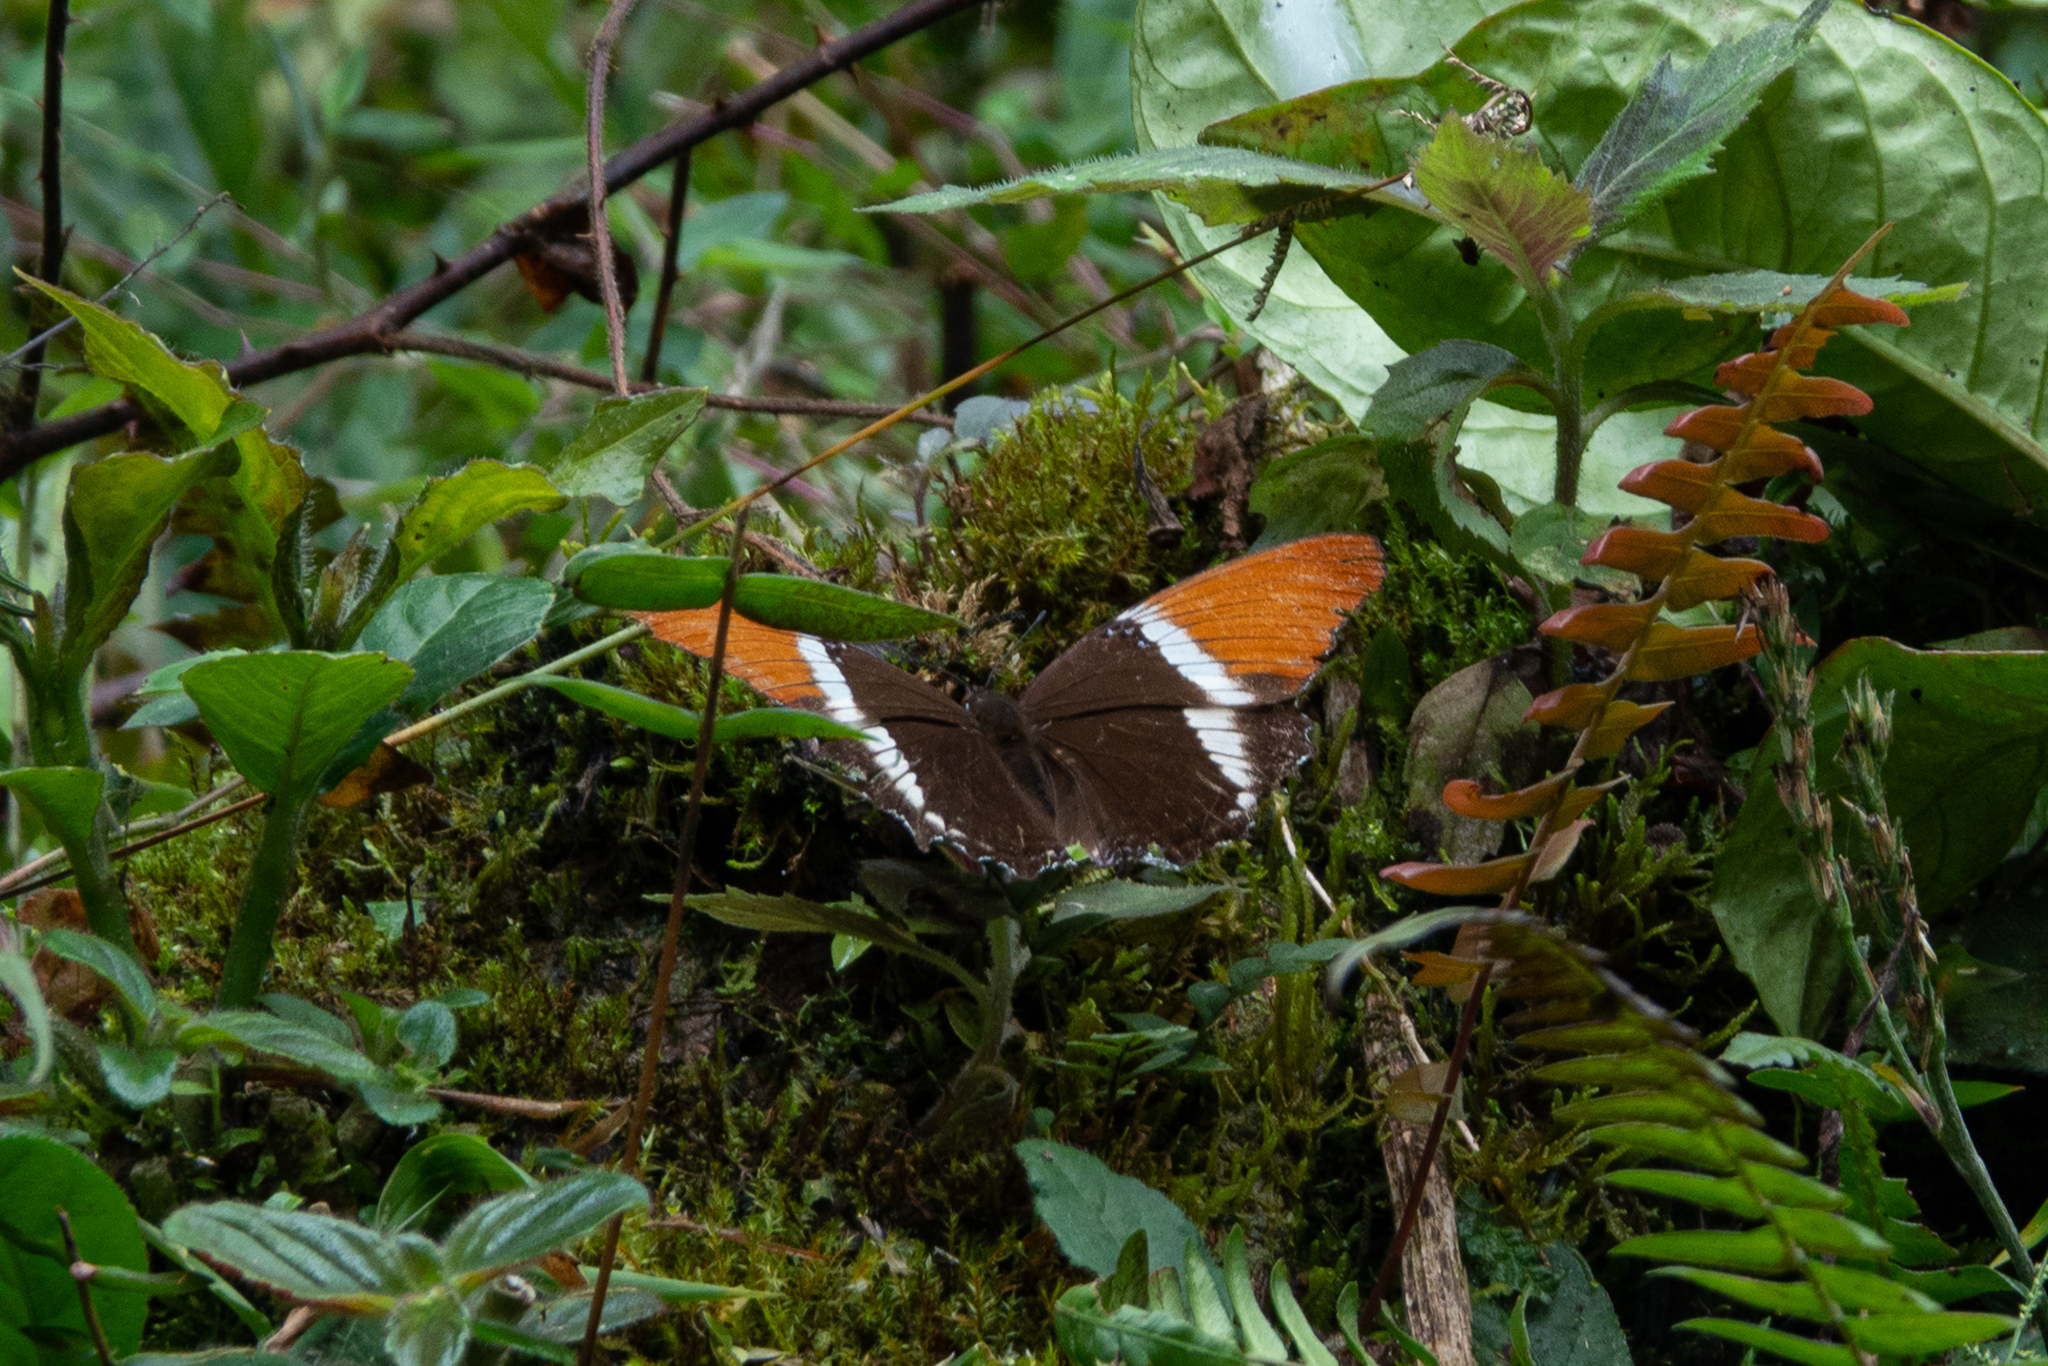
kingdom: Animalia
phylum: Arthropoda
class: Insecta
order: Lepidoptera
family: Nymphalidae
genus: Siproeta
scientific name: Siproeta epaphus
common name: Rusty-tipped page
